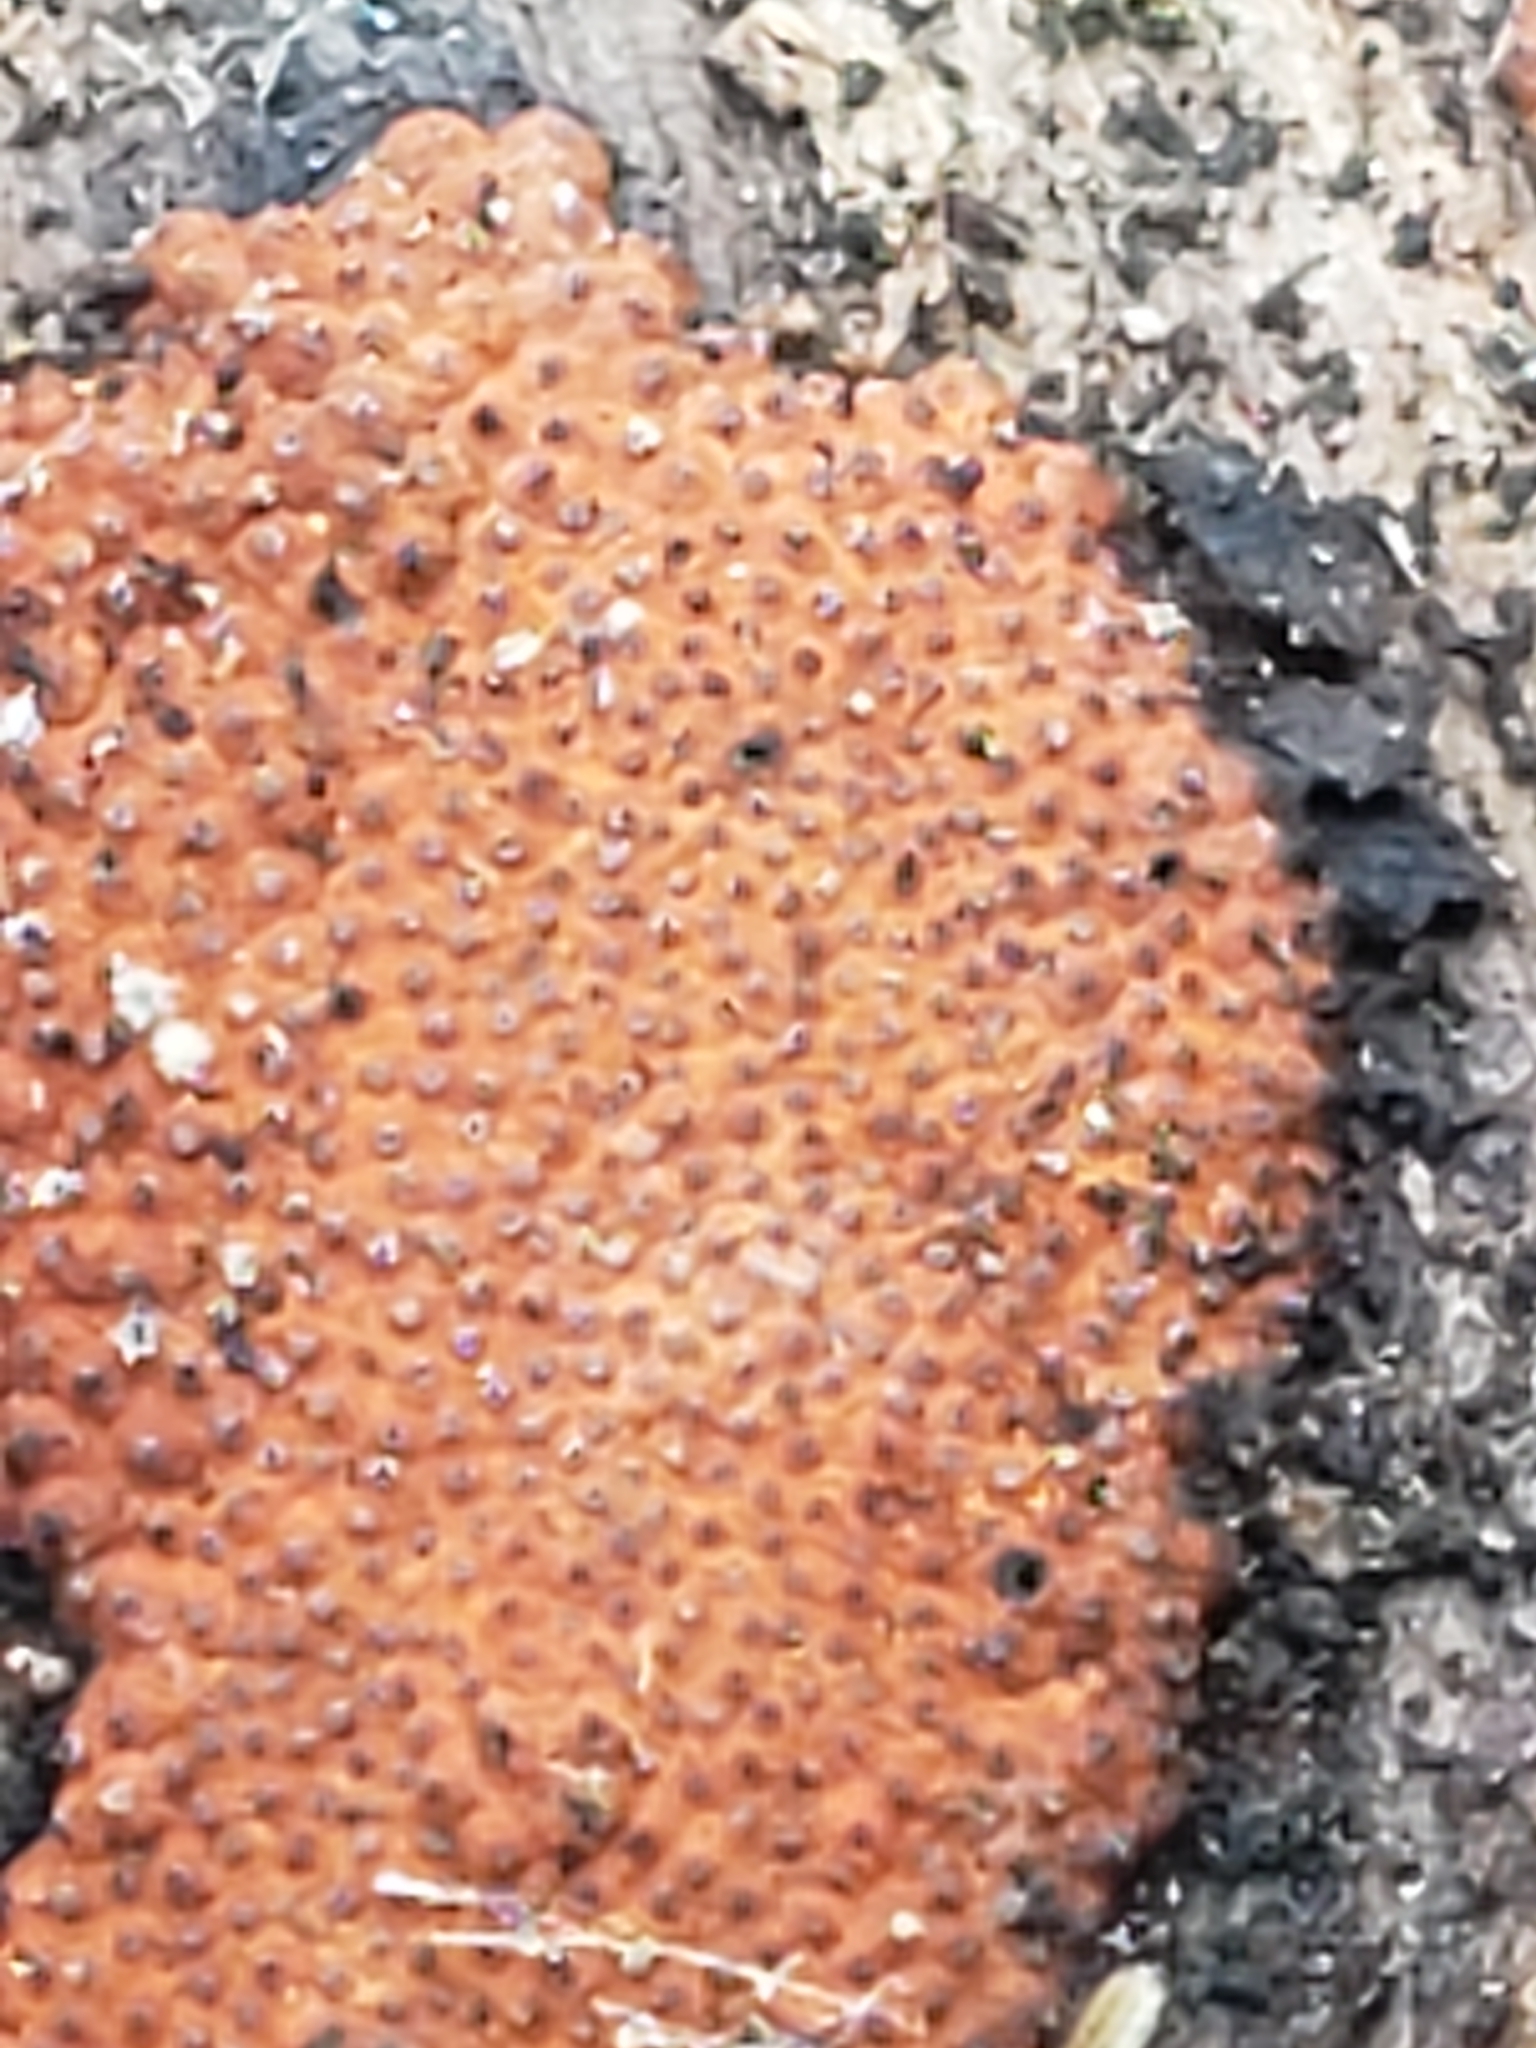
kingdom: Fungi
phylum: Ascomycota
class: Sordariomycetes
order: Xylariales
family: Hypoxylaceae
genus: Hypoxylon
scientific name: Hypoxylon rubiginosum
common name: Rusty woodwart
